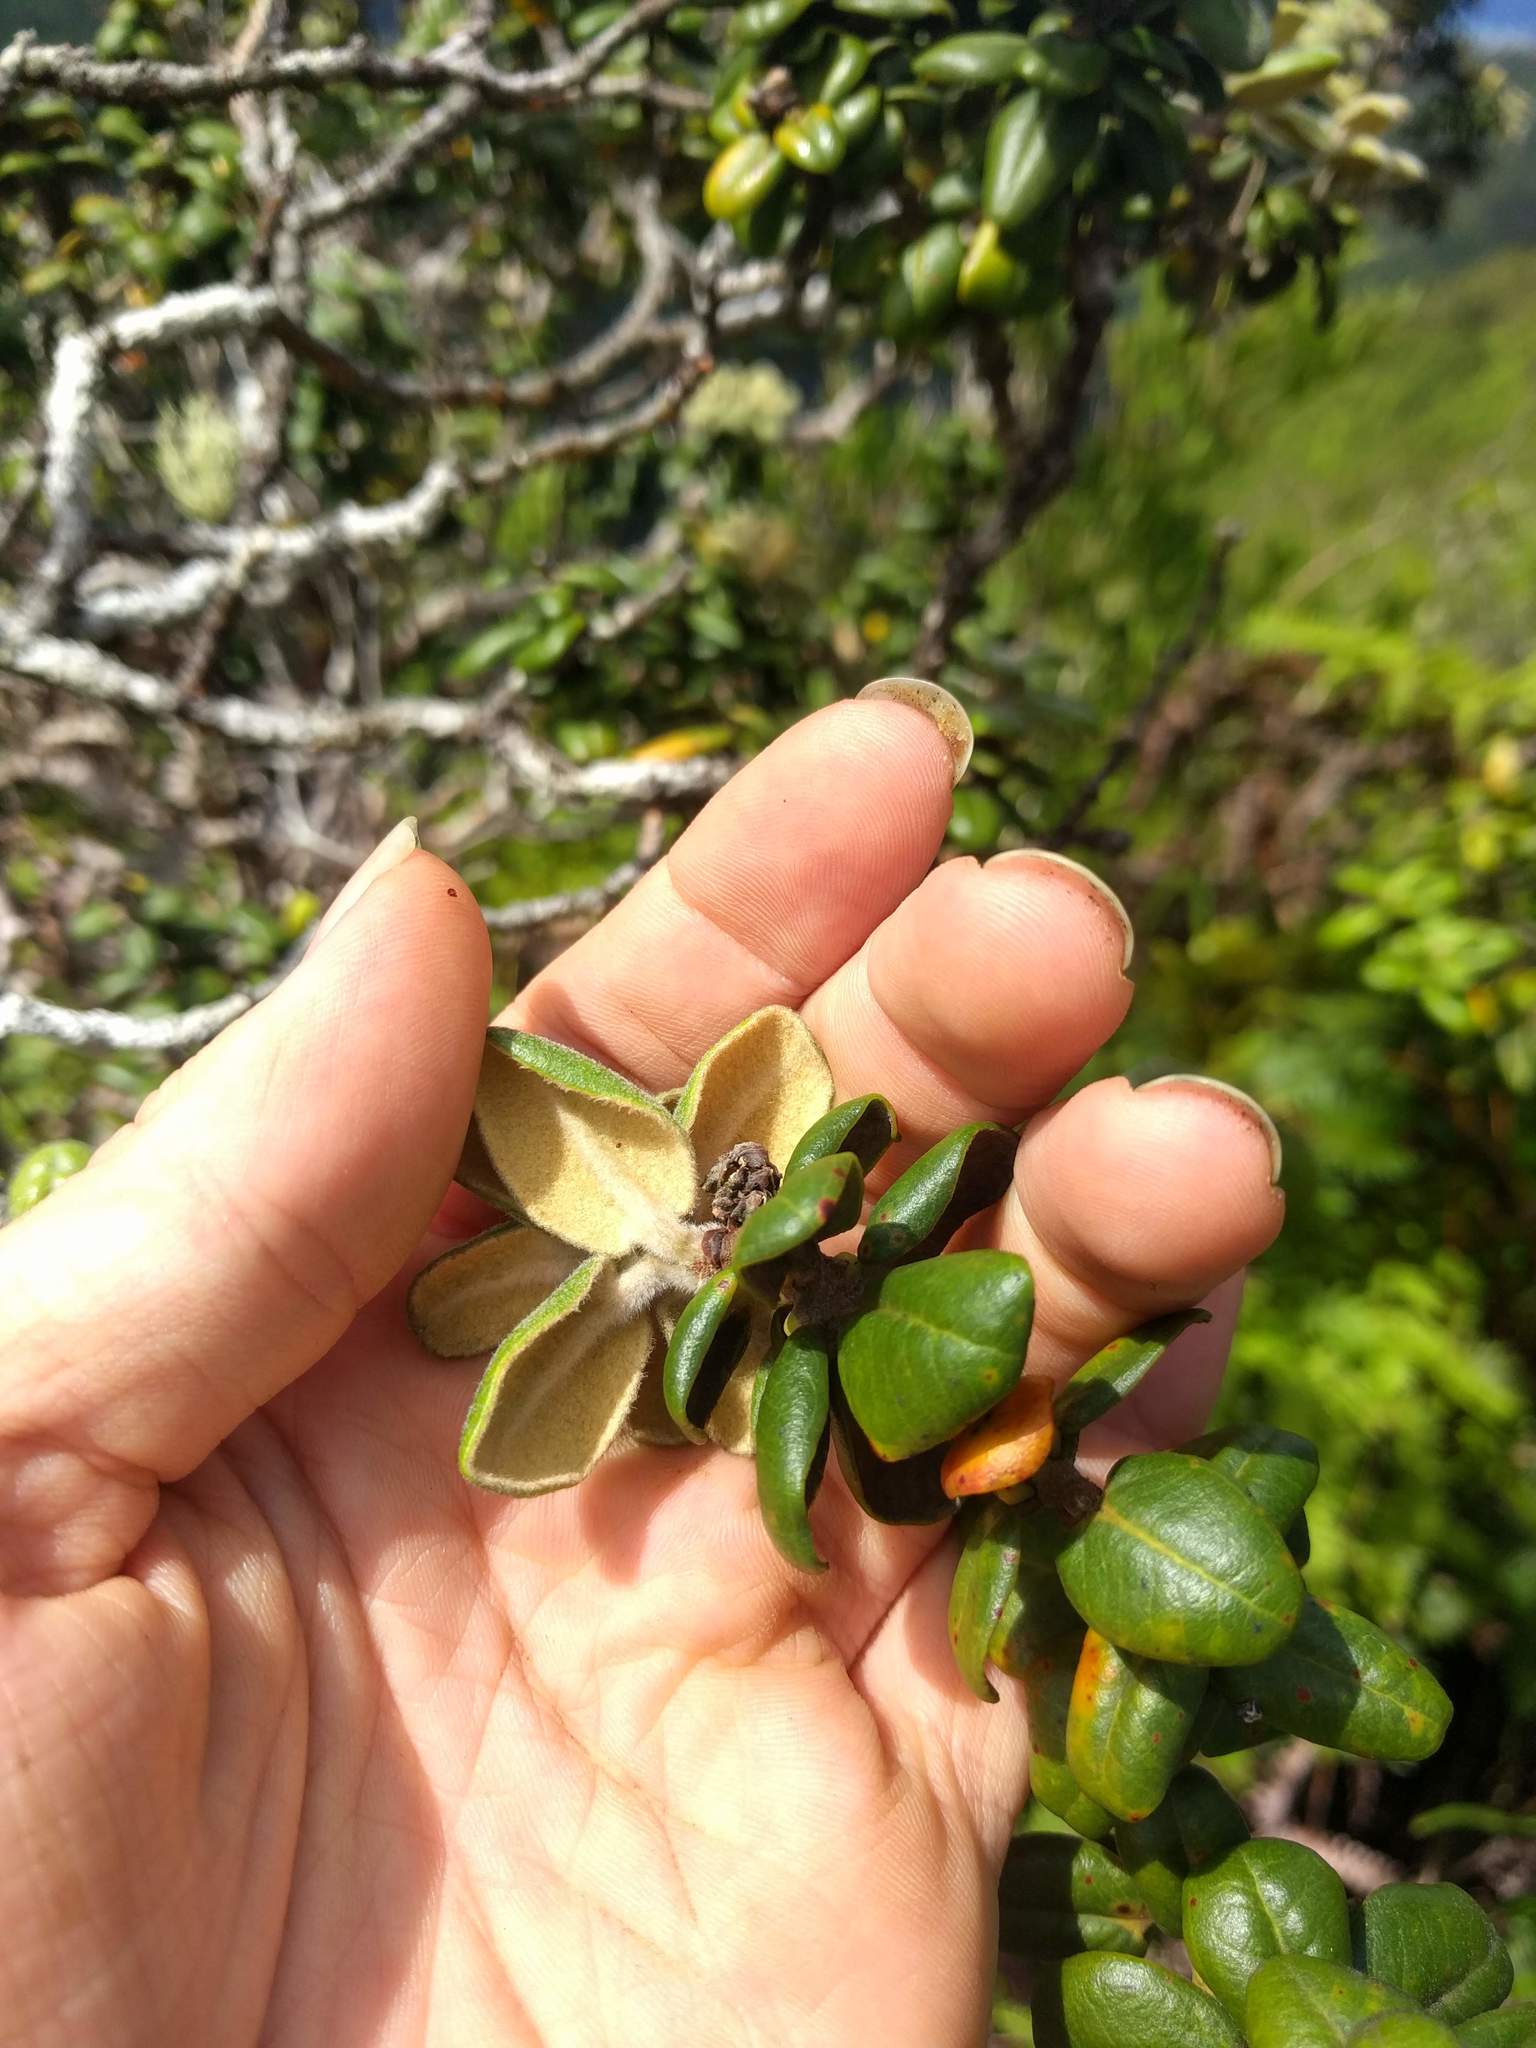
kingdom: Plantae
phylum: Tracheophyta
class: Magnoliopsida
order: Myrtales
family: Myrtaceae
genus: Metrosideros
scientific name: Metrosideros rugosa
